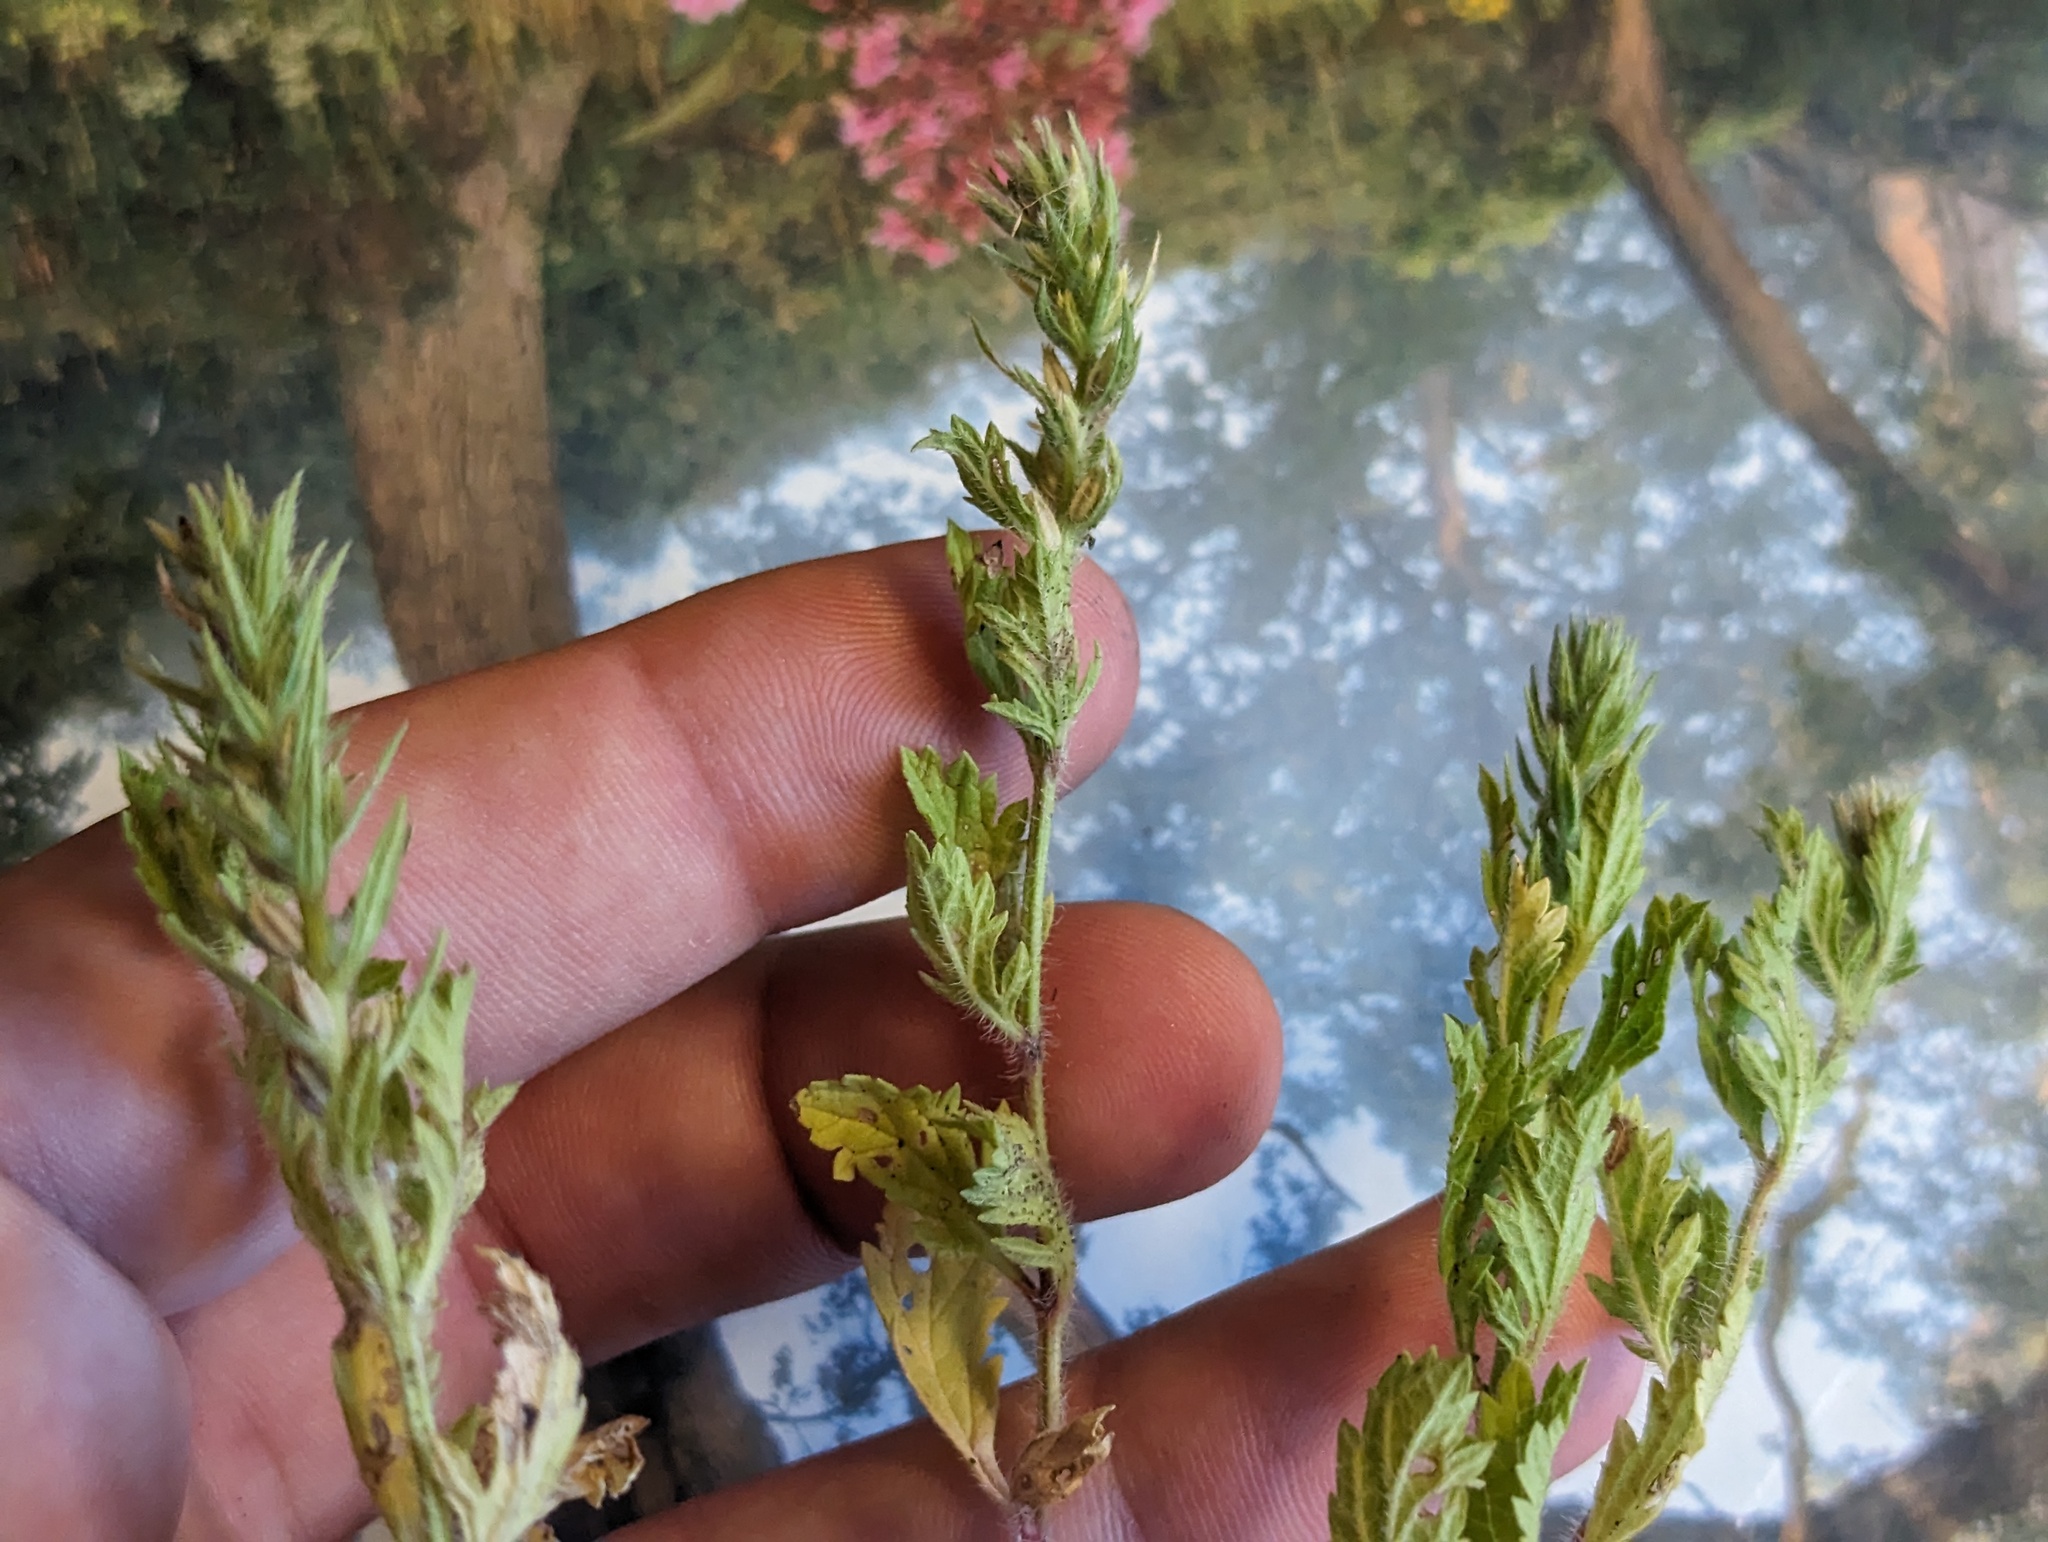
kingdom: Plantae
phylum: Tracheophyta
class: Magnoliopsida
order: Lamiales
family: Verbenaceae
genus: Verbena
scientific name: Verbena bracteata
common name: Bracted vervain
